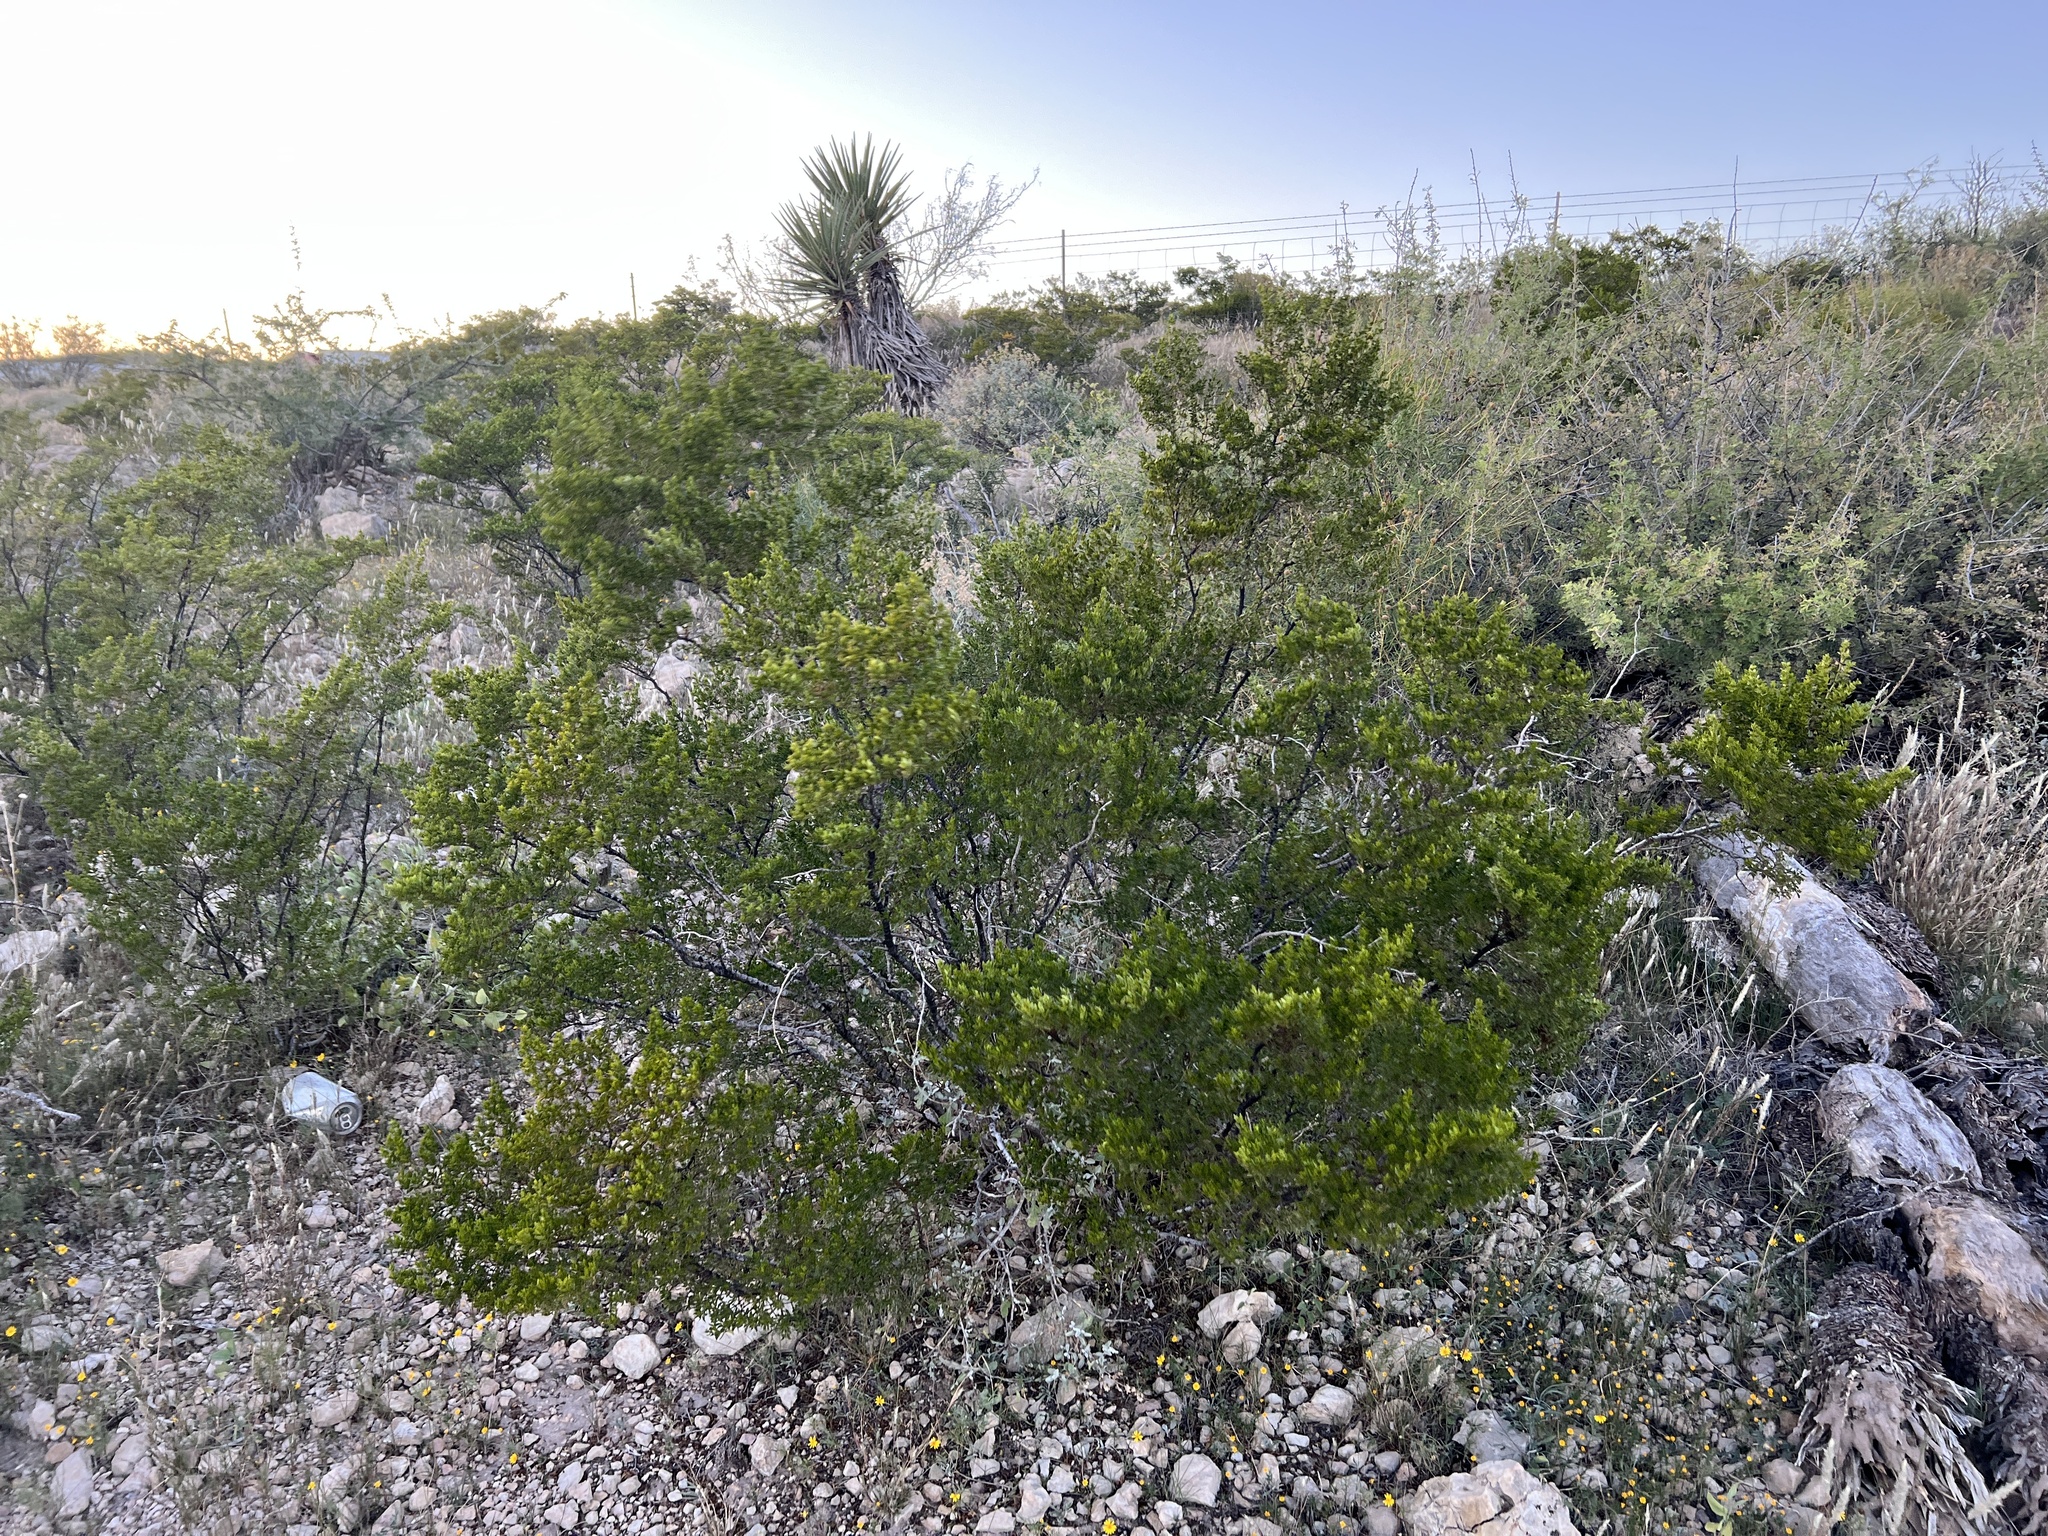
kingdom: Plantae
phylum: Tracheophyta
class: Magnoliopsida
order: Zygophyllales
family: Zygophyllaceae
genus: Larrea
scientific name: Larrea tridentata
